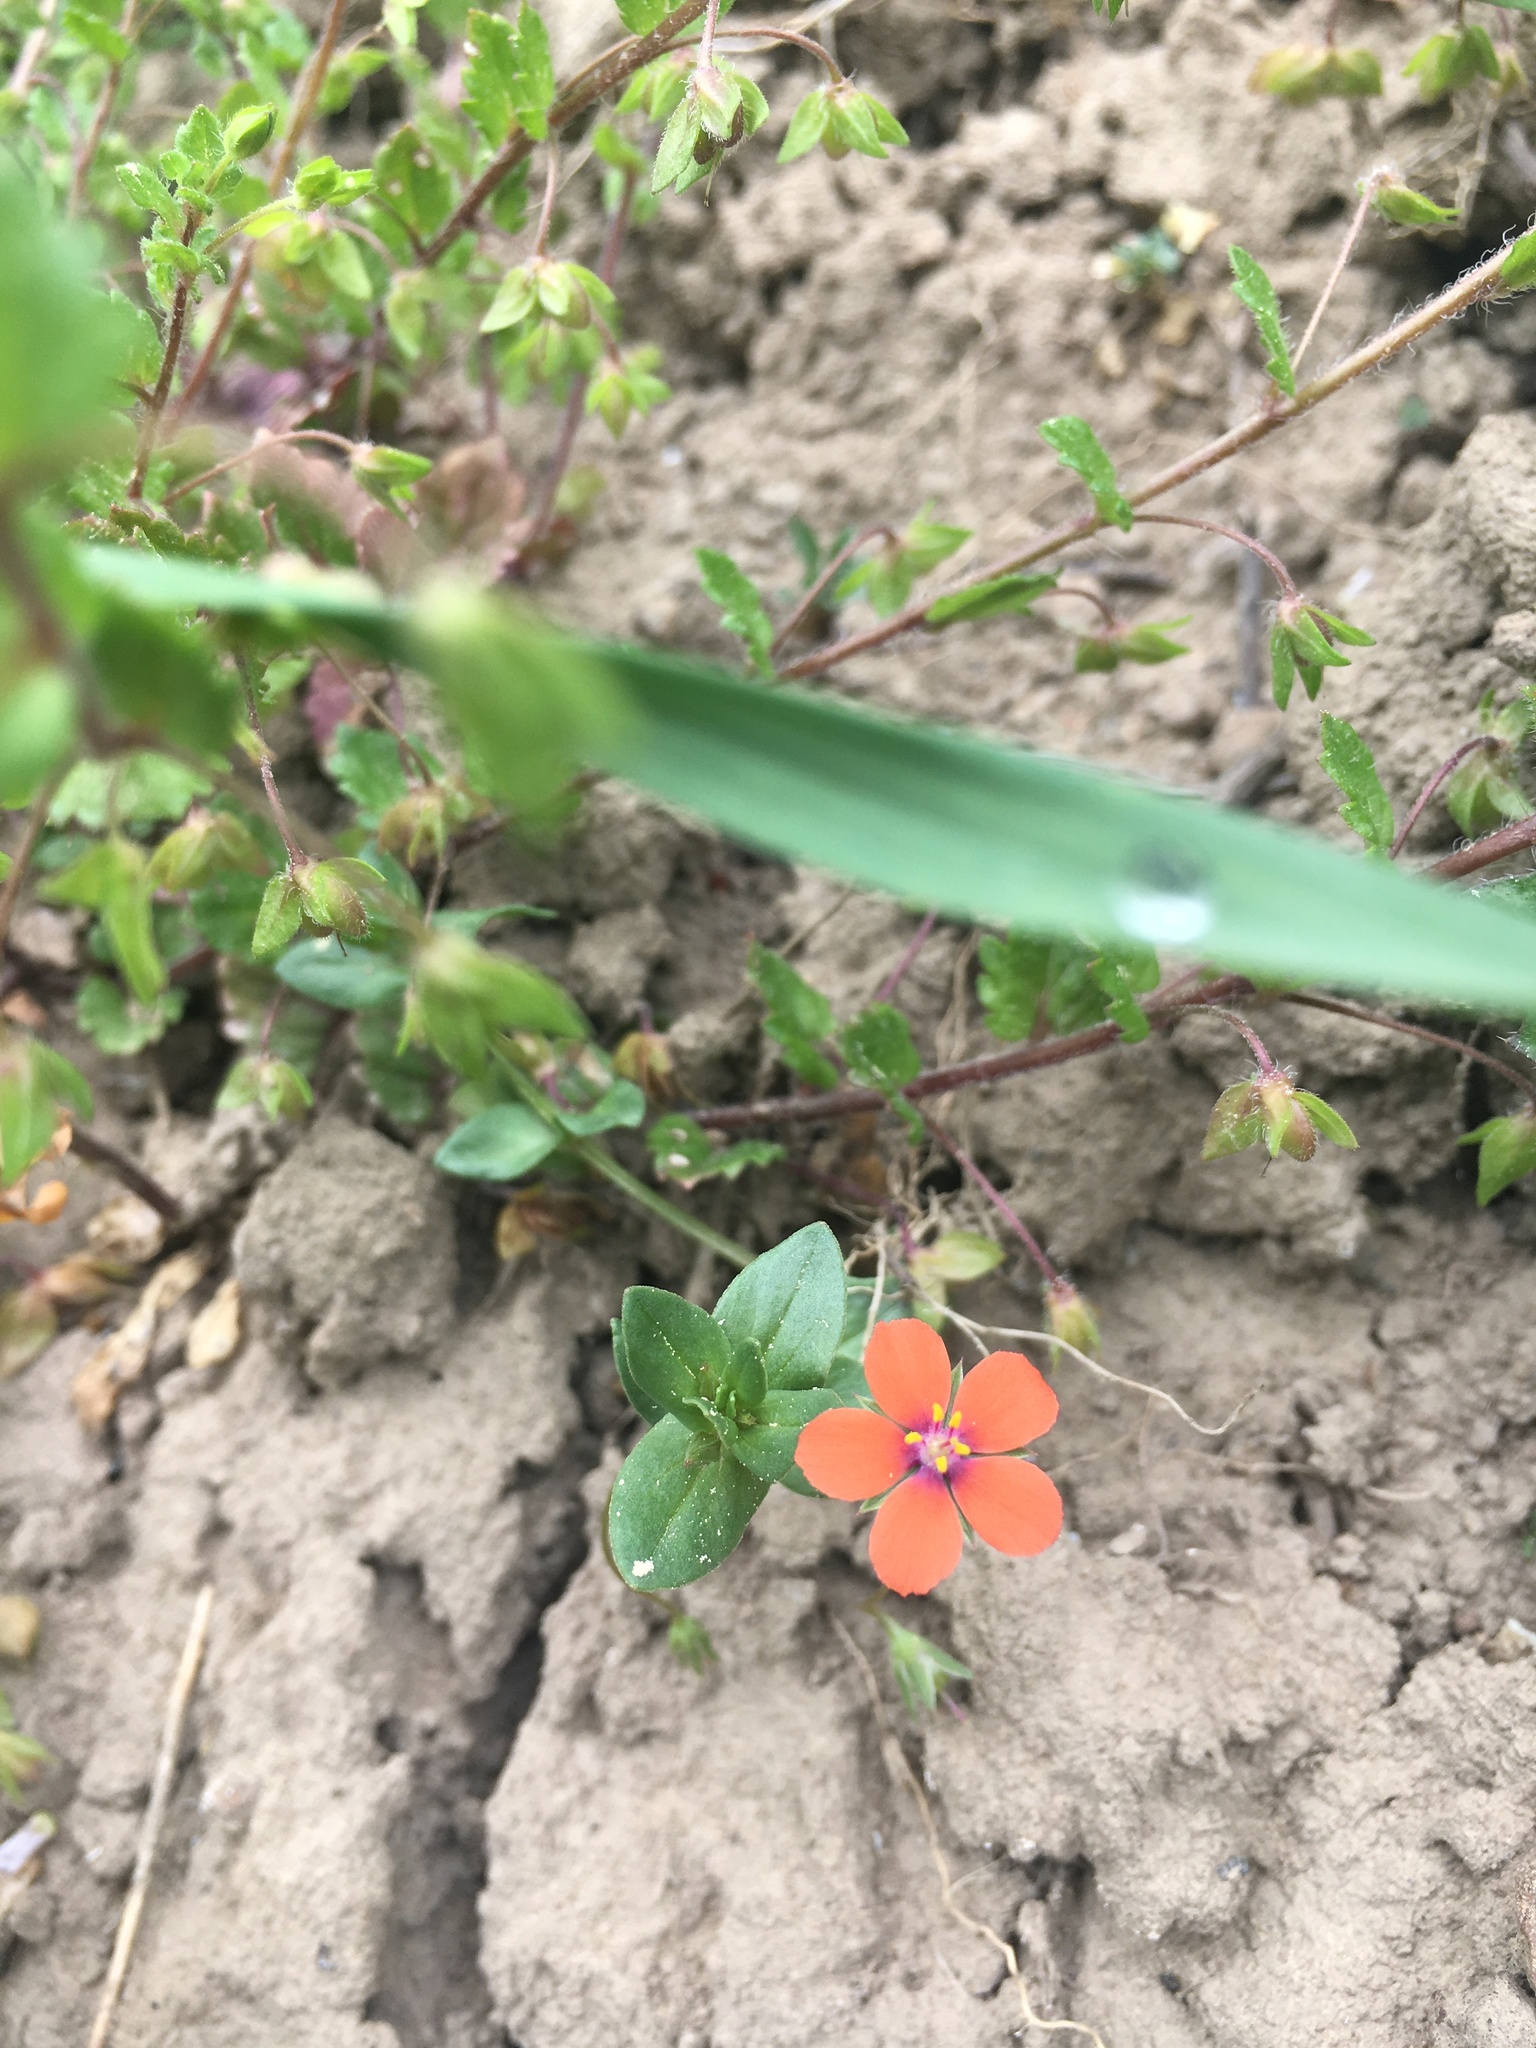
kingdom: Plantae
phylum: Tracheophyta
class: Magnoliopsida
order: Ericales
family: Primulaceae
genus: Lysimachia
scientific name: Lysimachia arvensis
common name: Scarlet pimpernel
